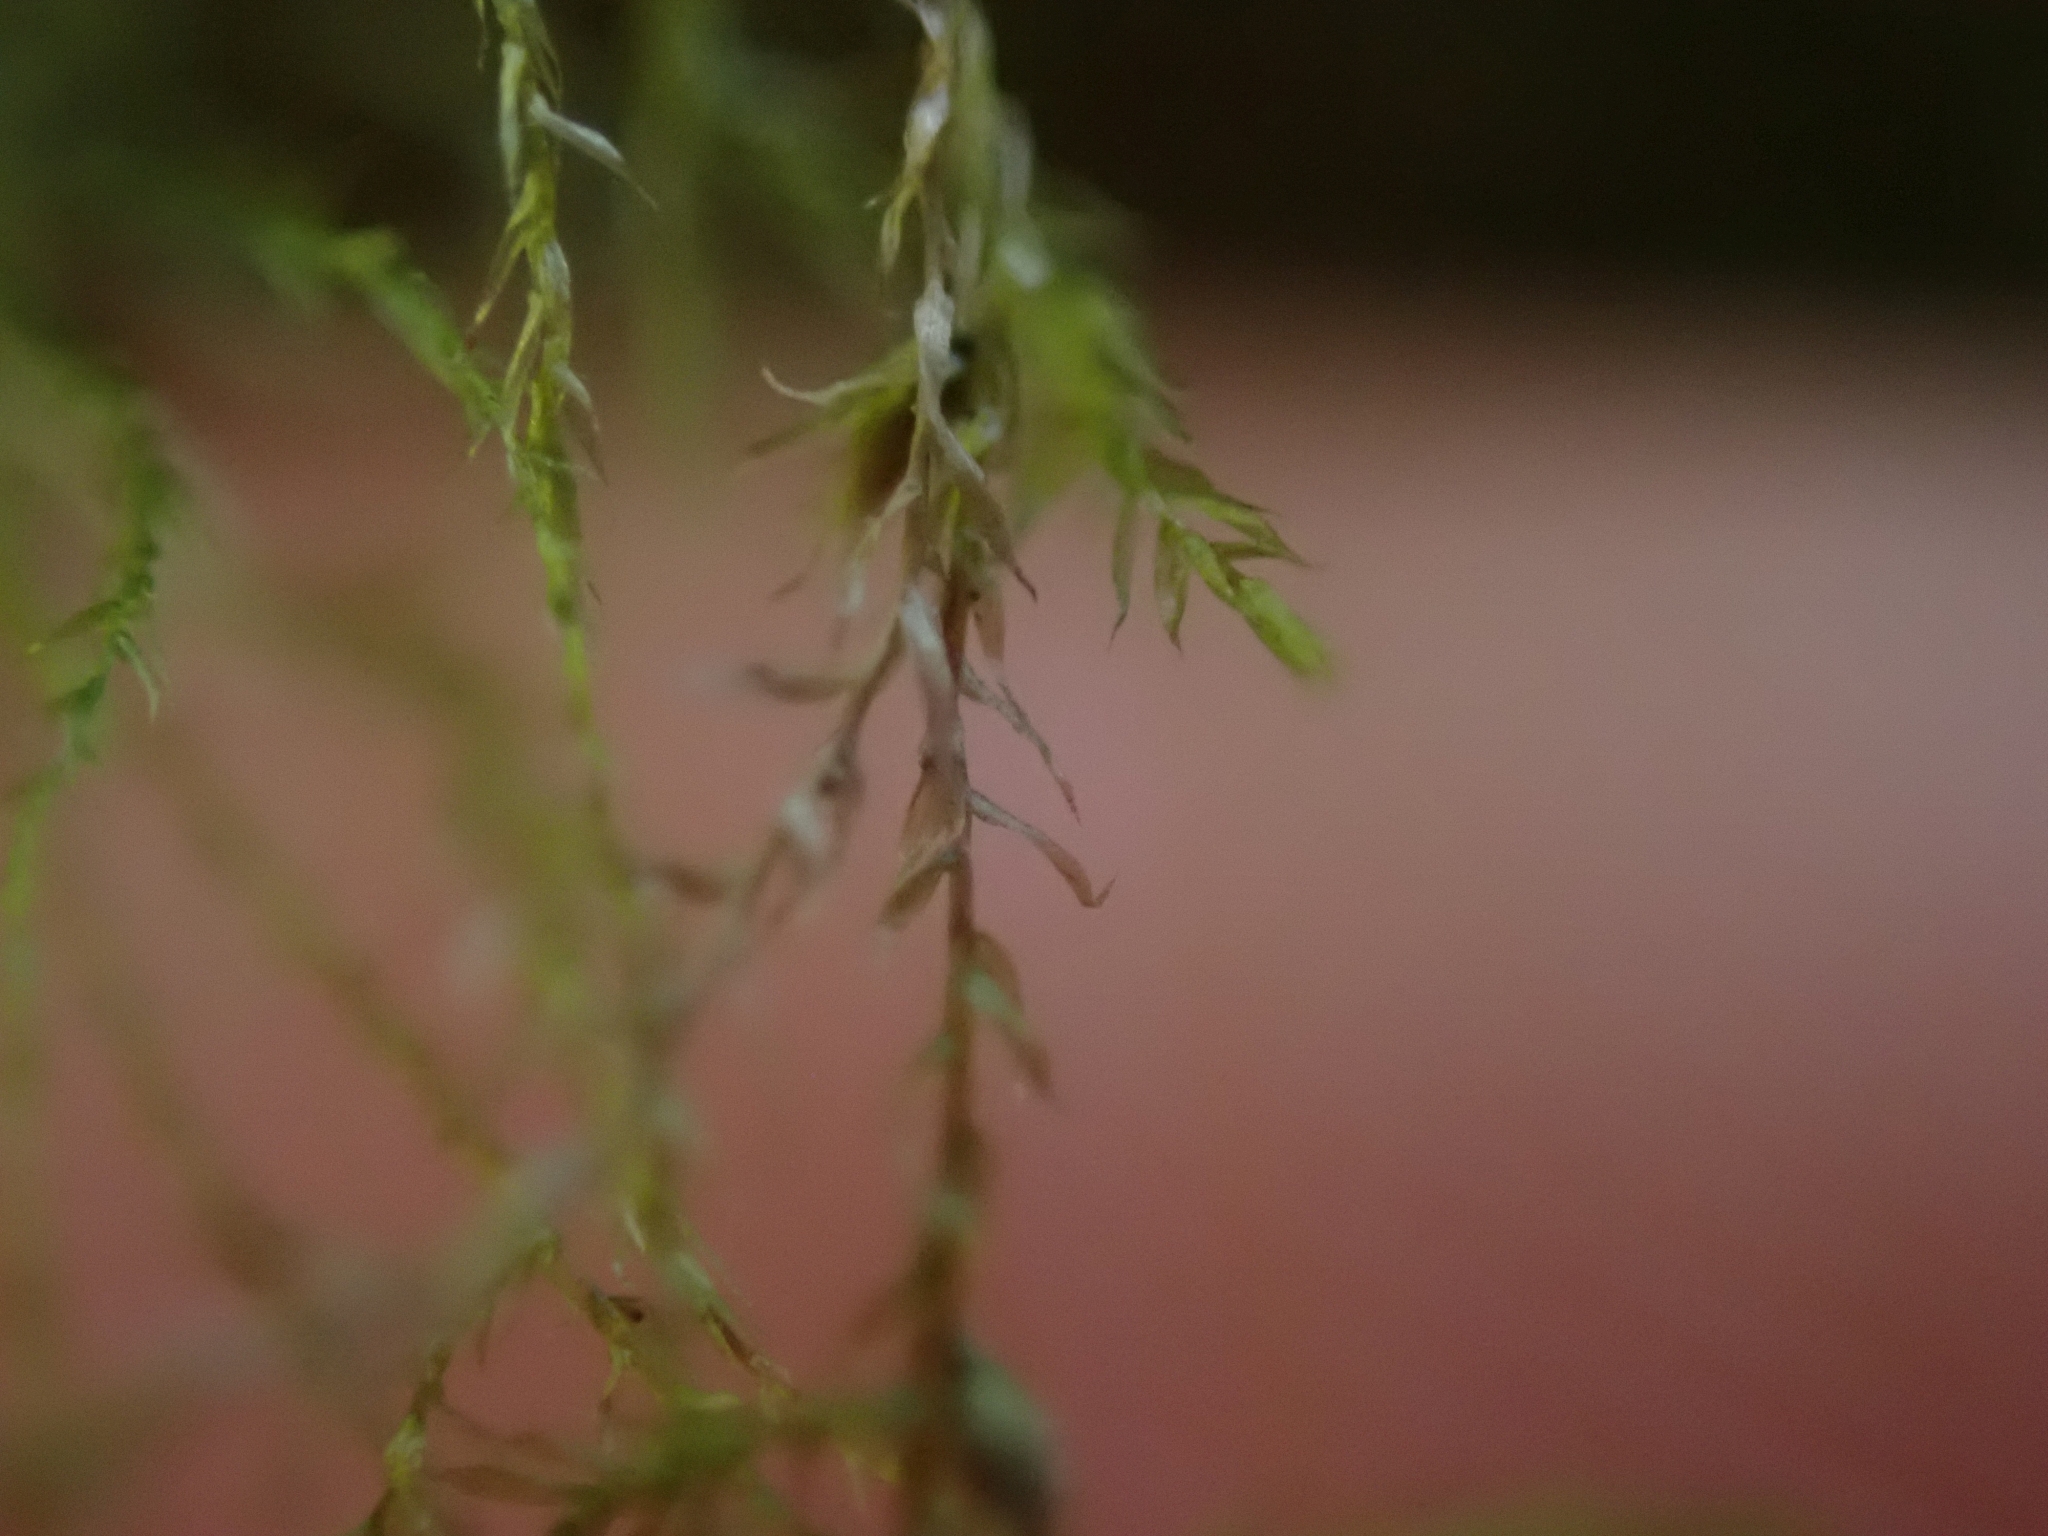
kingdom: Plantae
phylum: Bryophyta
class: Bryopsida
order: Hypnales
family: Lembophyllaceae
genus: Pseudisothecium
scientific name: Pseudisothecium stoloniferum
